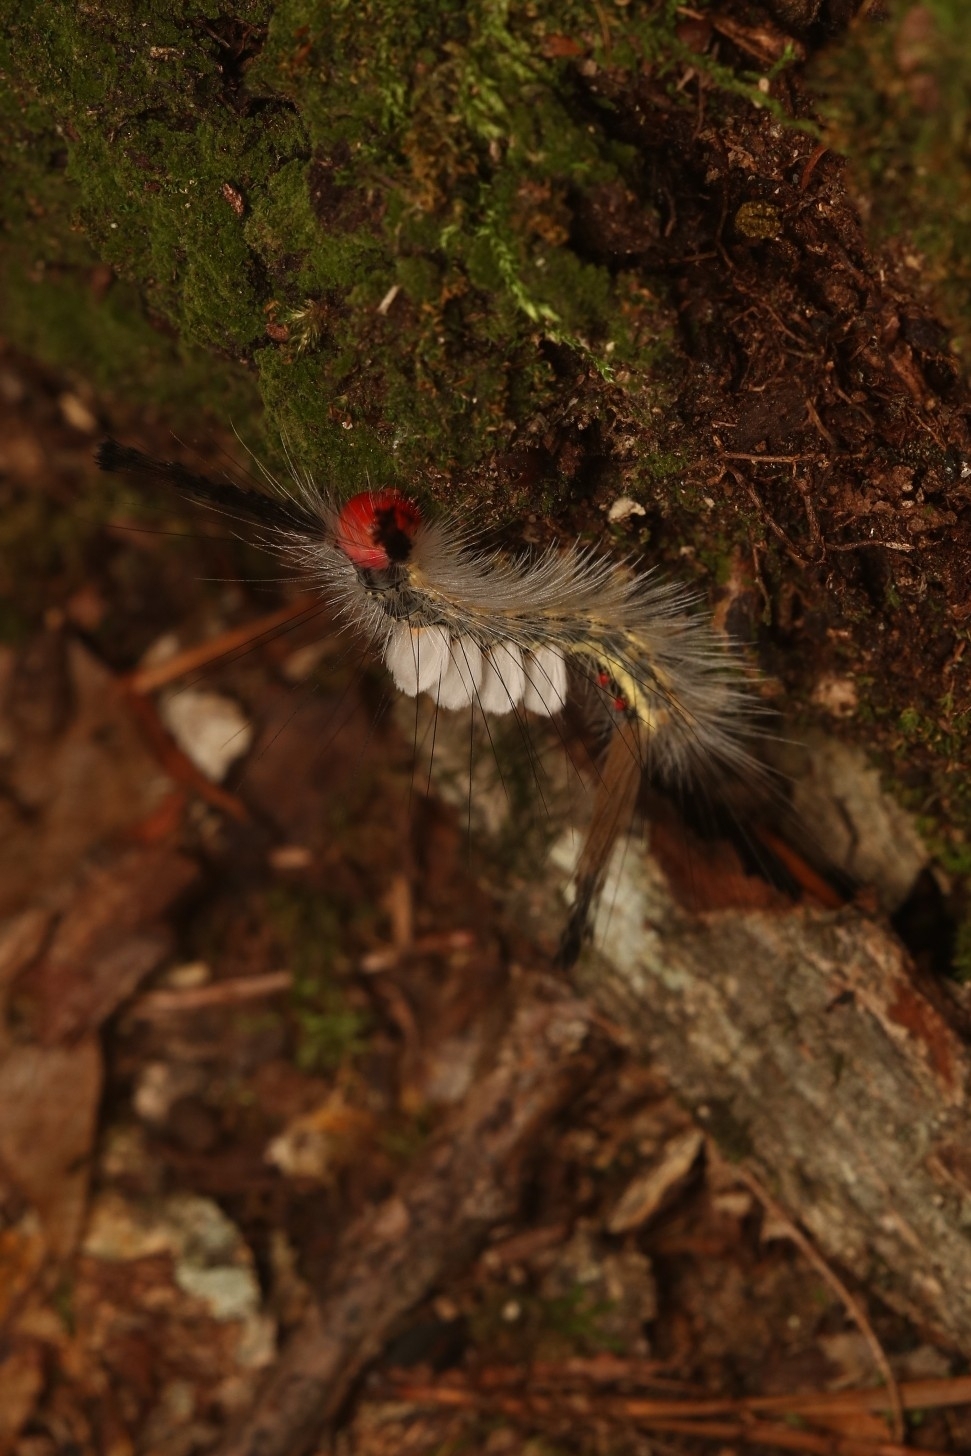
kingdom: Animalia
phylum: Arthropoda
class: Insecta
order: Lepidoptera
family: Erebidae
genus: Orgyia
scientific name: Orgyia leucostigma
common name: White-marked tussock moth
